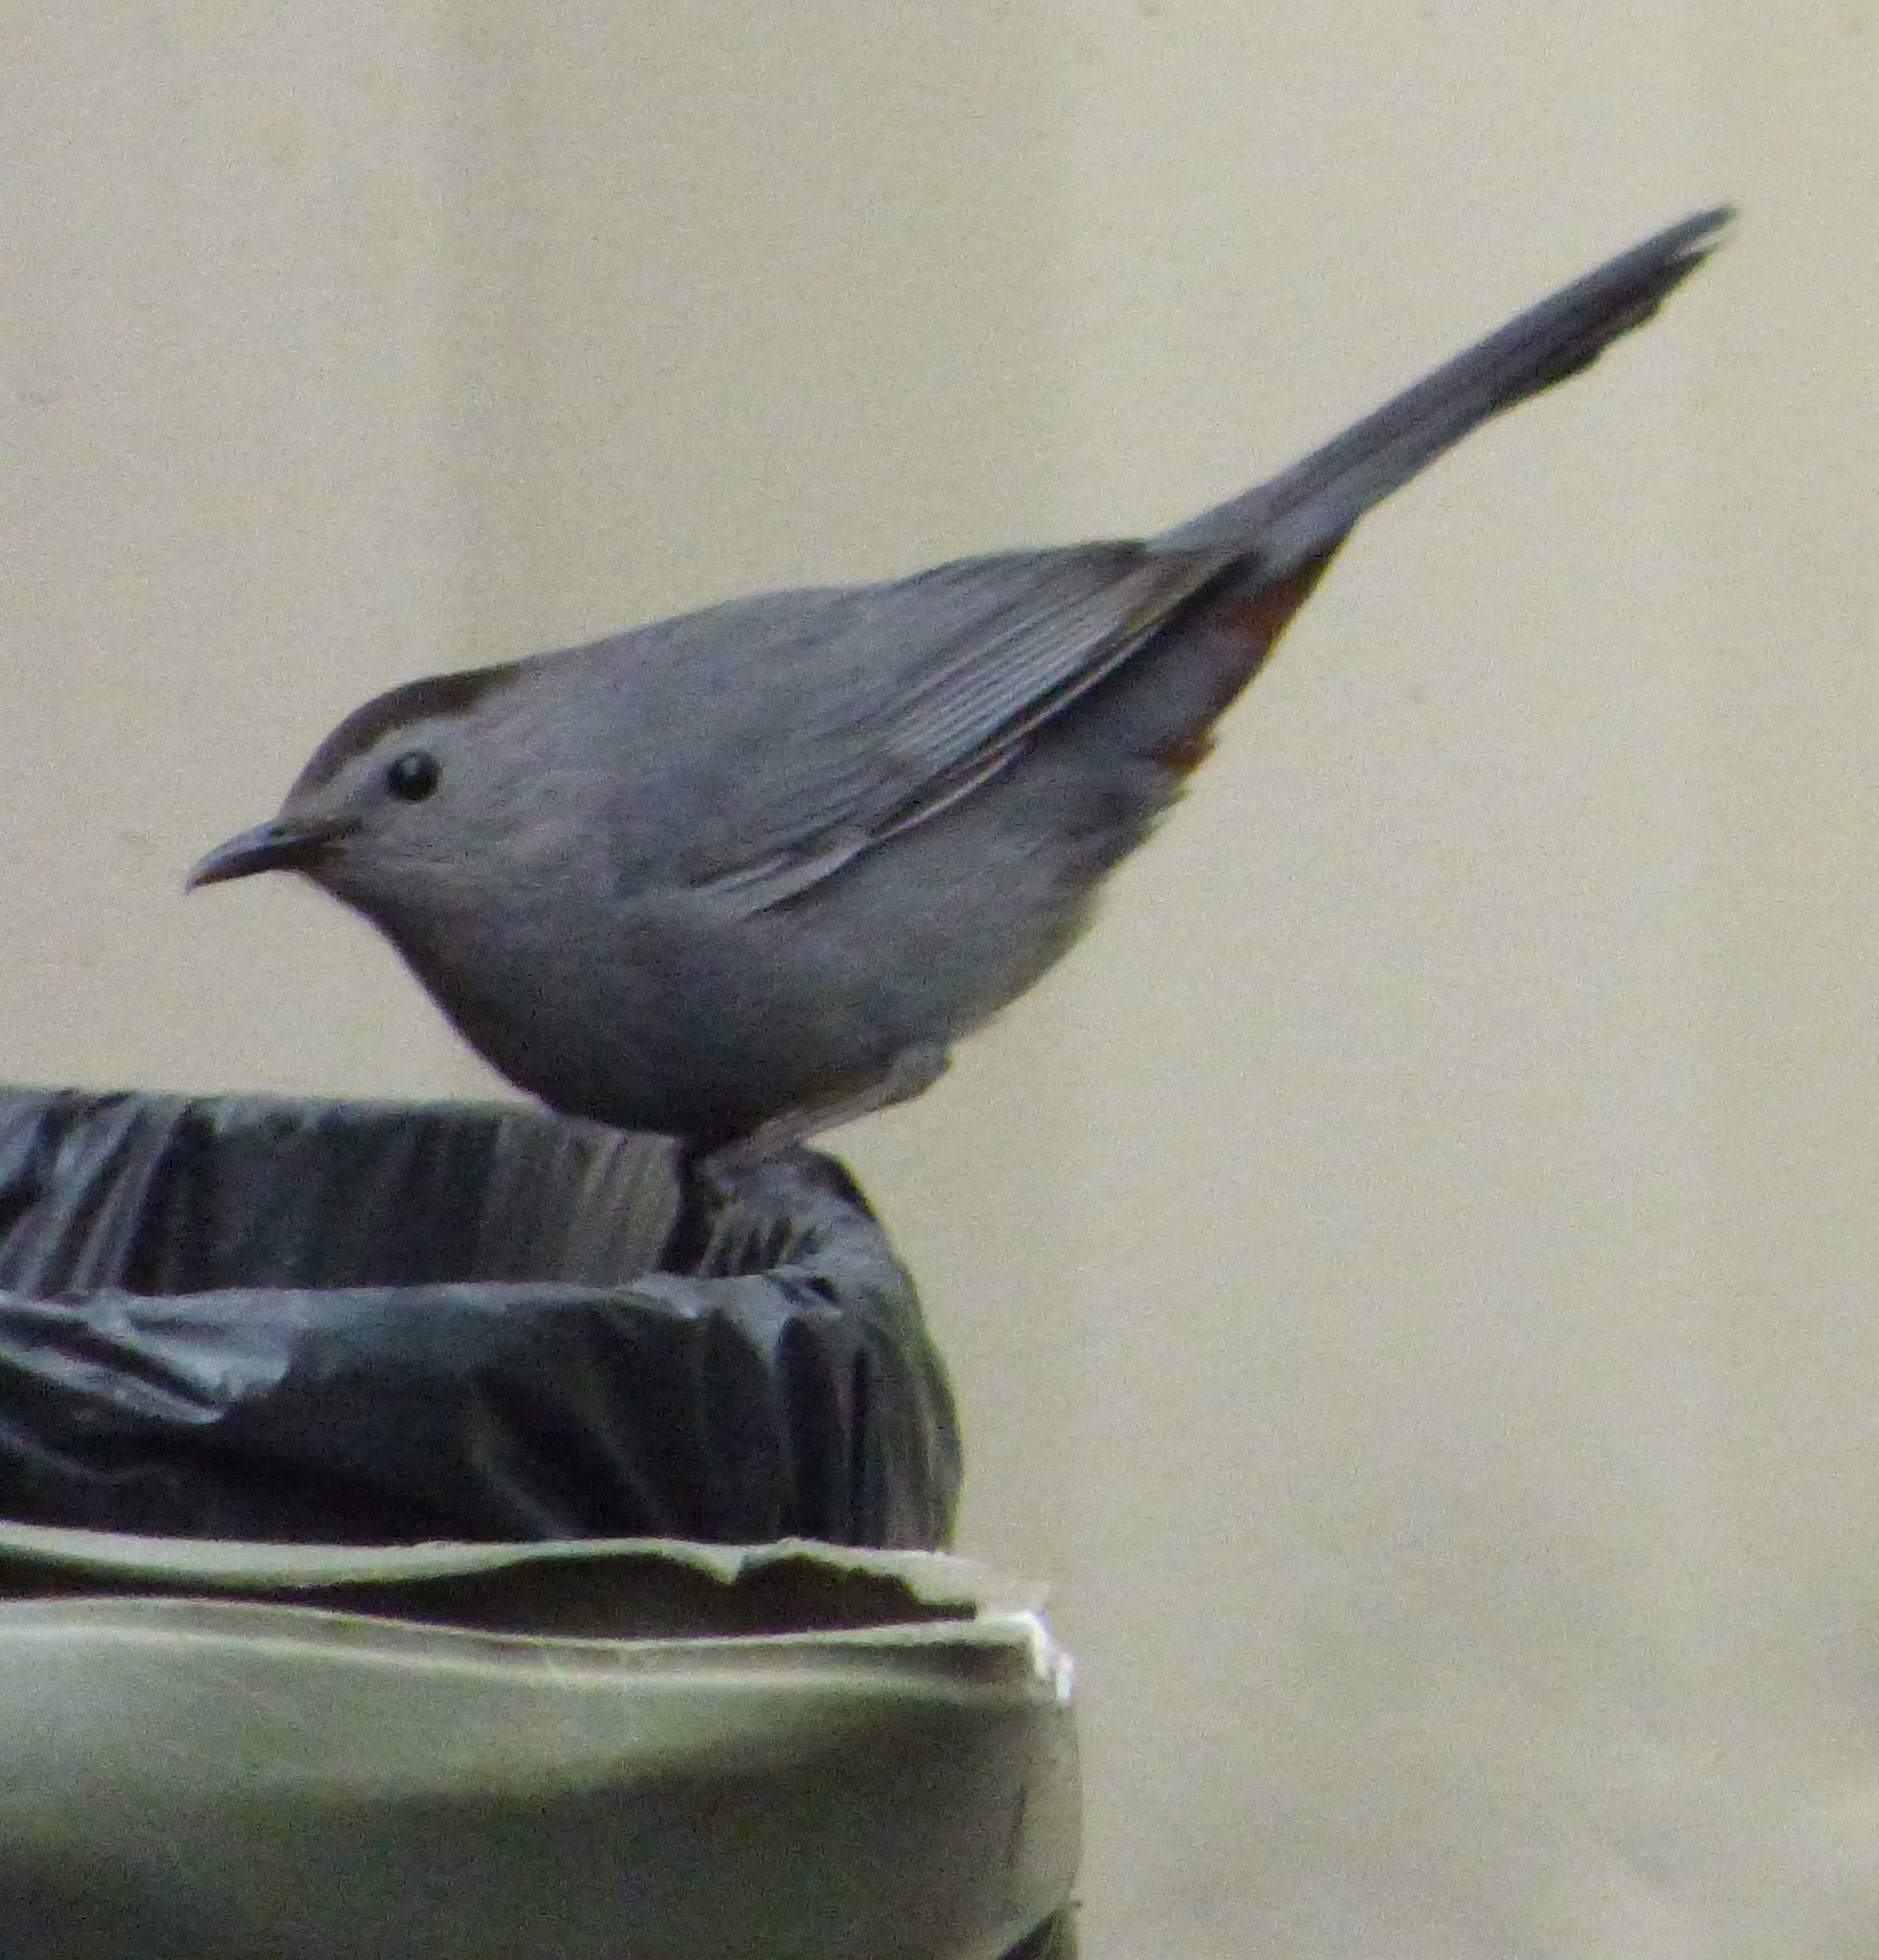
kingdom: Animalia
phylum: Chordata
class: Aves
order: Passeriformes
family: Mimidae
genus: Dumetella
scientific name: Dumetella carolinensis
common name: Gray catbird
